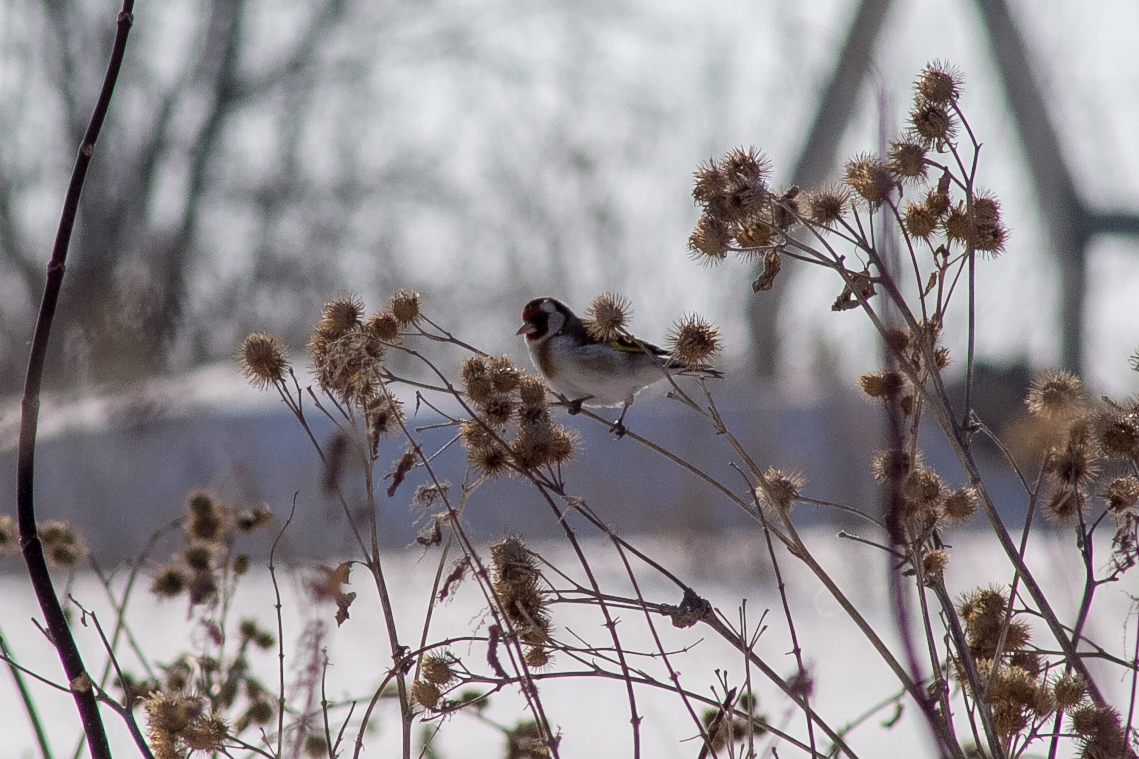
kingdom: Animalia
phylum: Chordata
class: Aves
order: Passeriformes
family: Fringillidae
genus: Carduelis
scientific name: Carduelis carduelis
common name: European goldfinch
